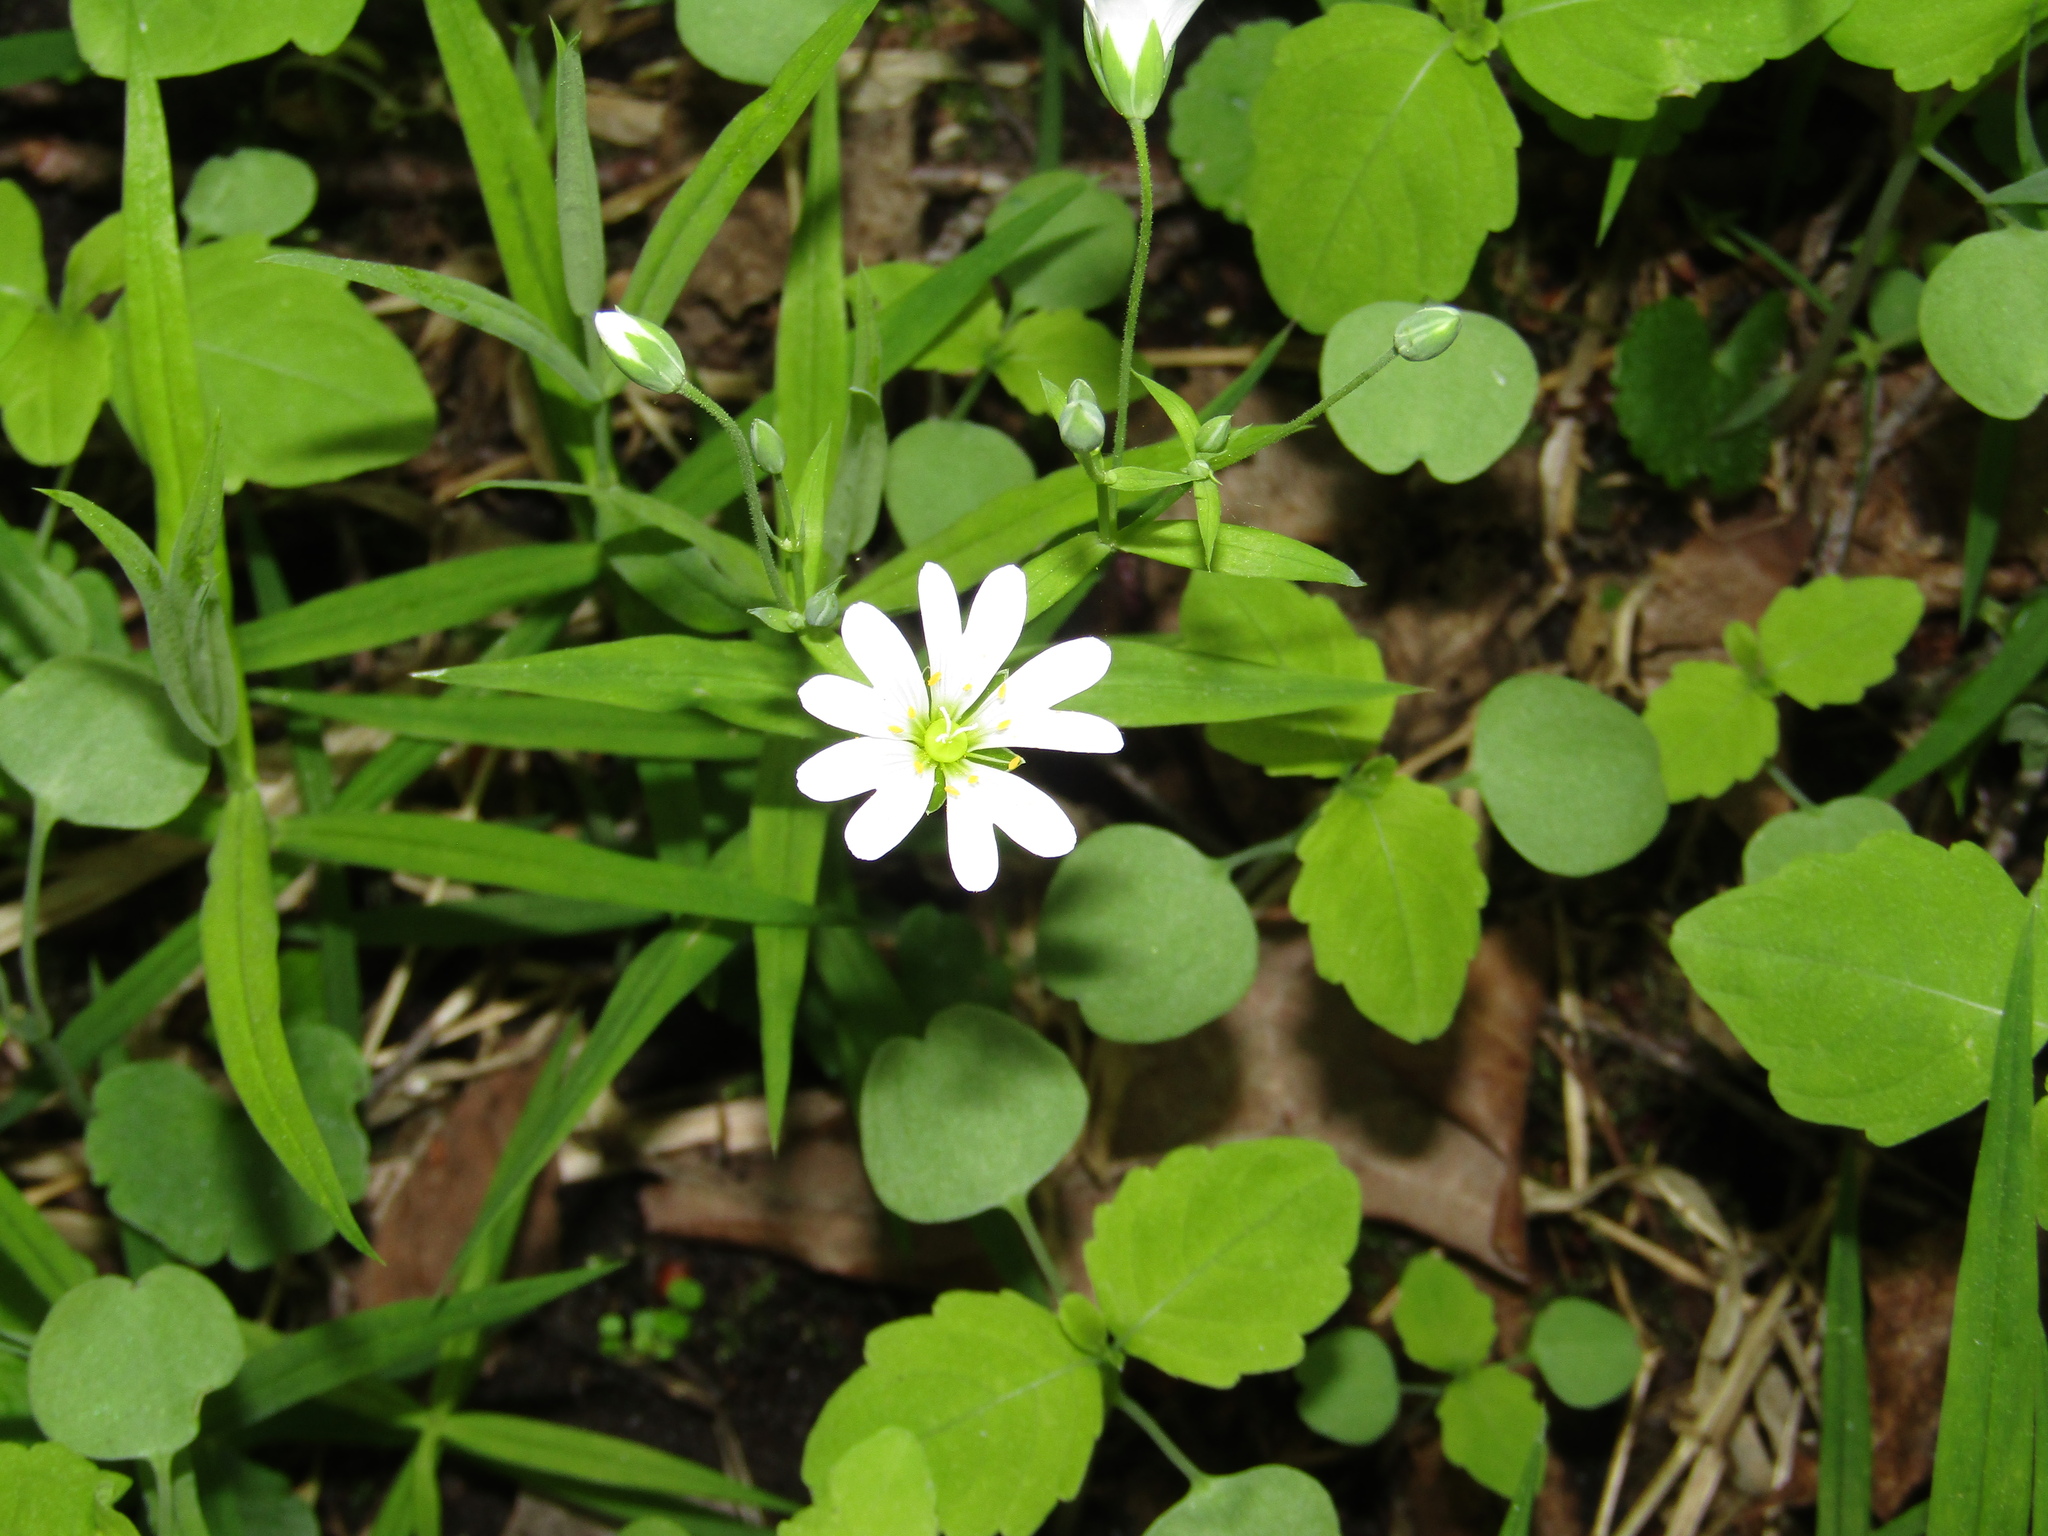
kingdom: Plantae
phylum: Tracheophyta
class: Magnoliopsida
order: Caryophyllales
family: Caryophyllaceae
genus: Rabelera
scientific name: Rabelera holostea
